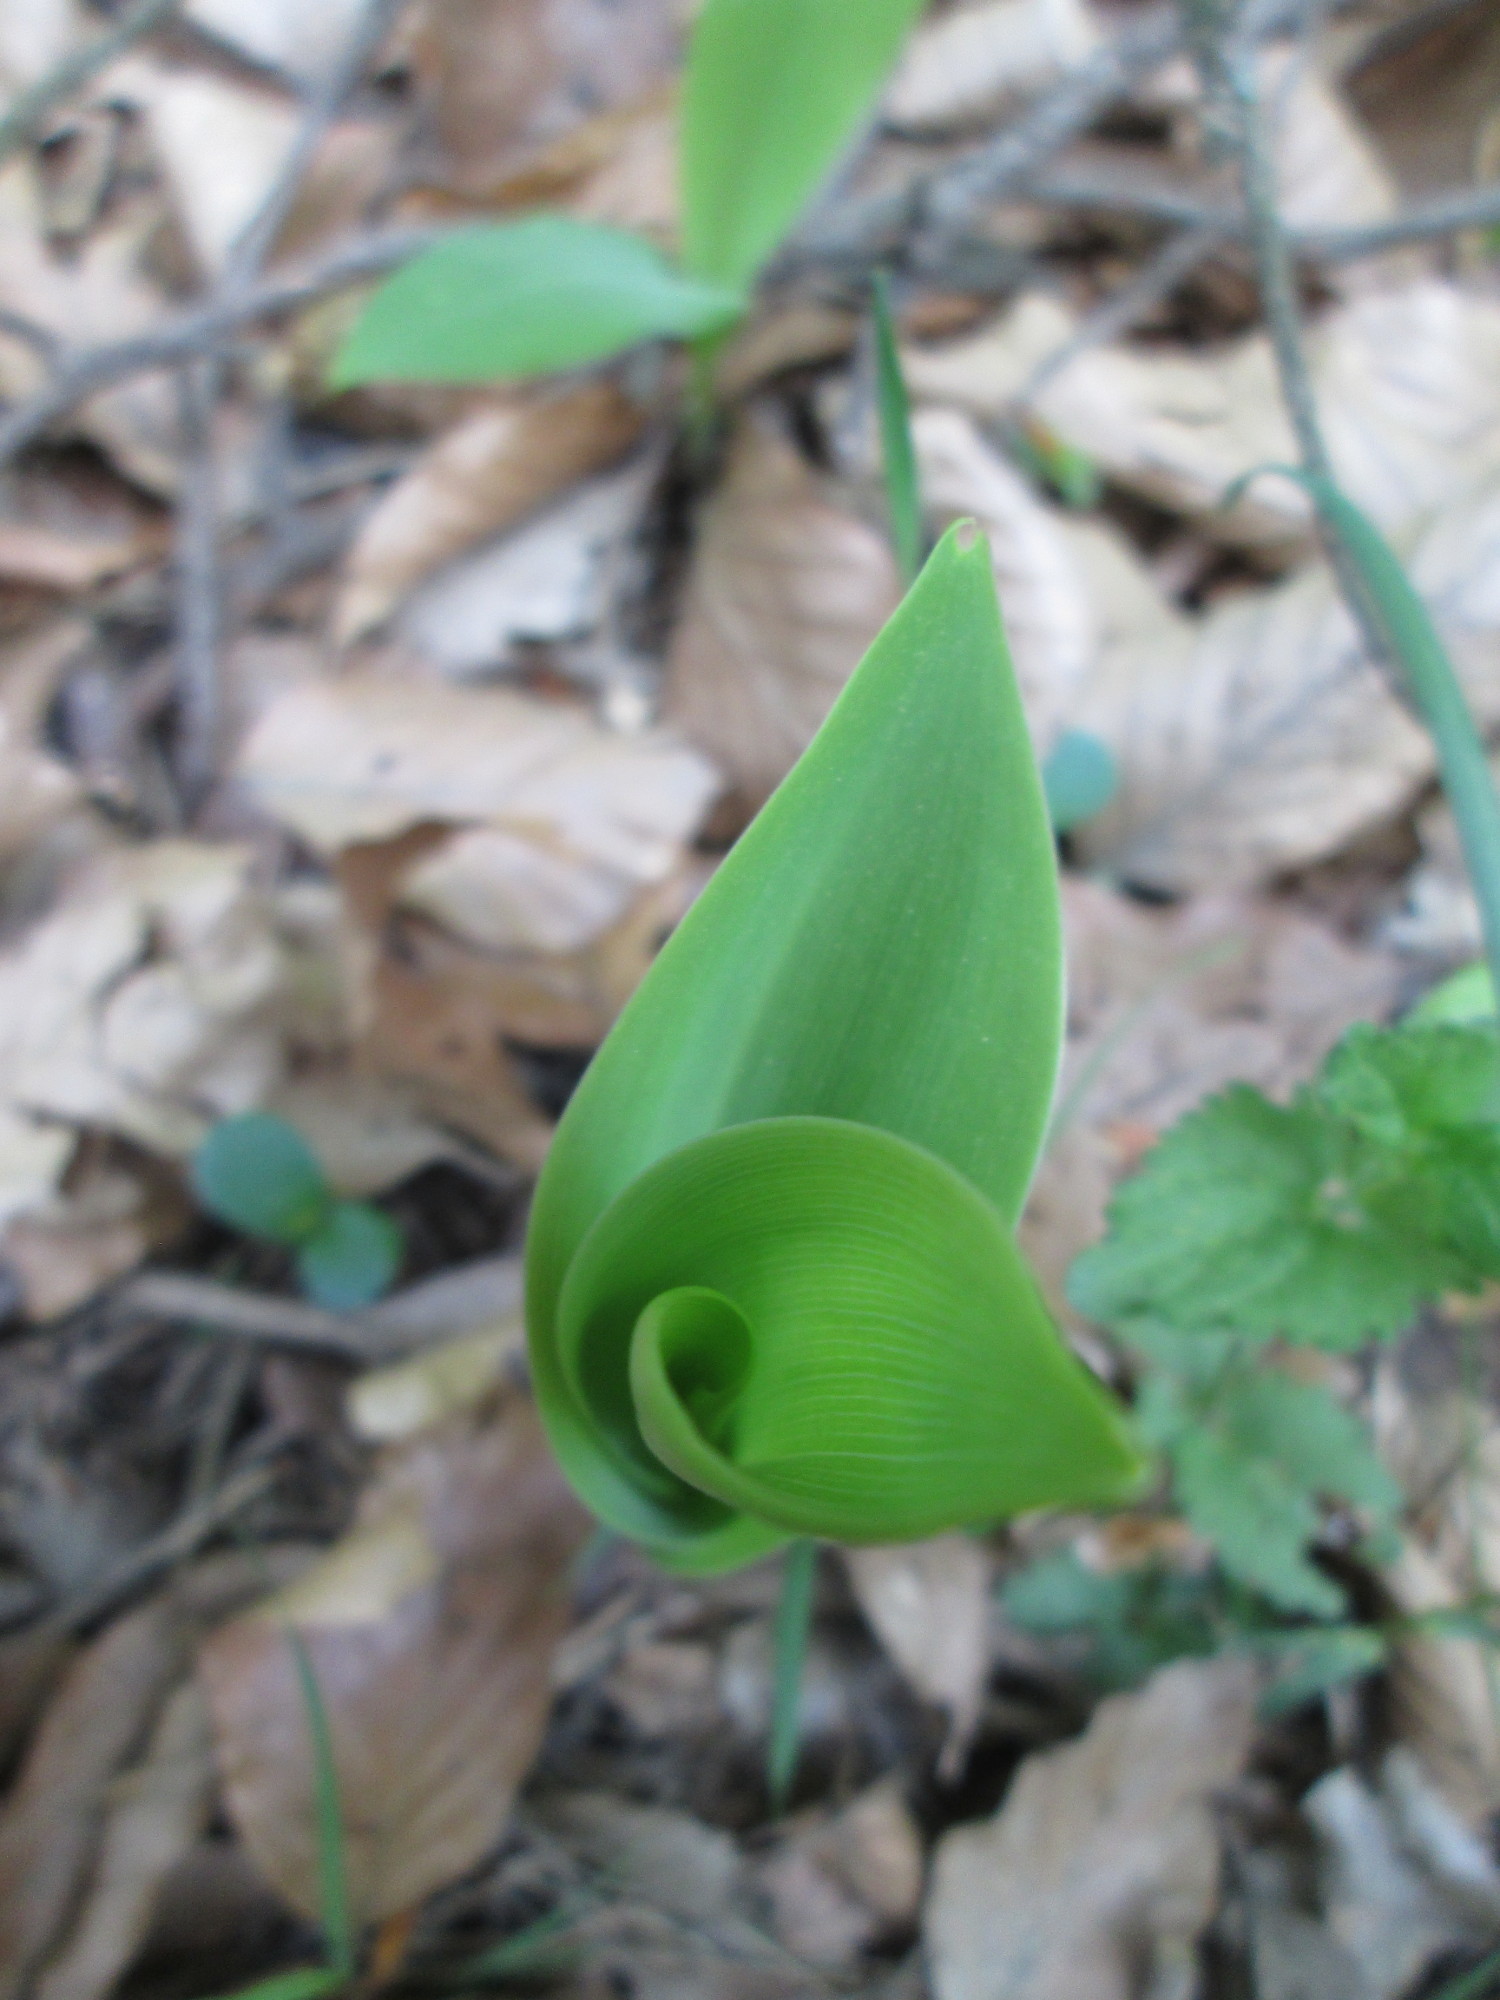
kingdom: Plantae
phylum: Tracheophyta
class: Liliopsida
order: Asparagales
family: Asparagaceae
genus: Convallaria
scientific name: Convallaria majalis
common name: Lily-of-the-valley
